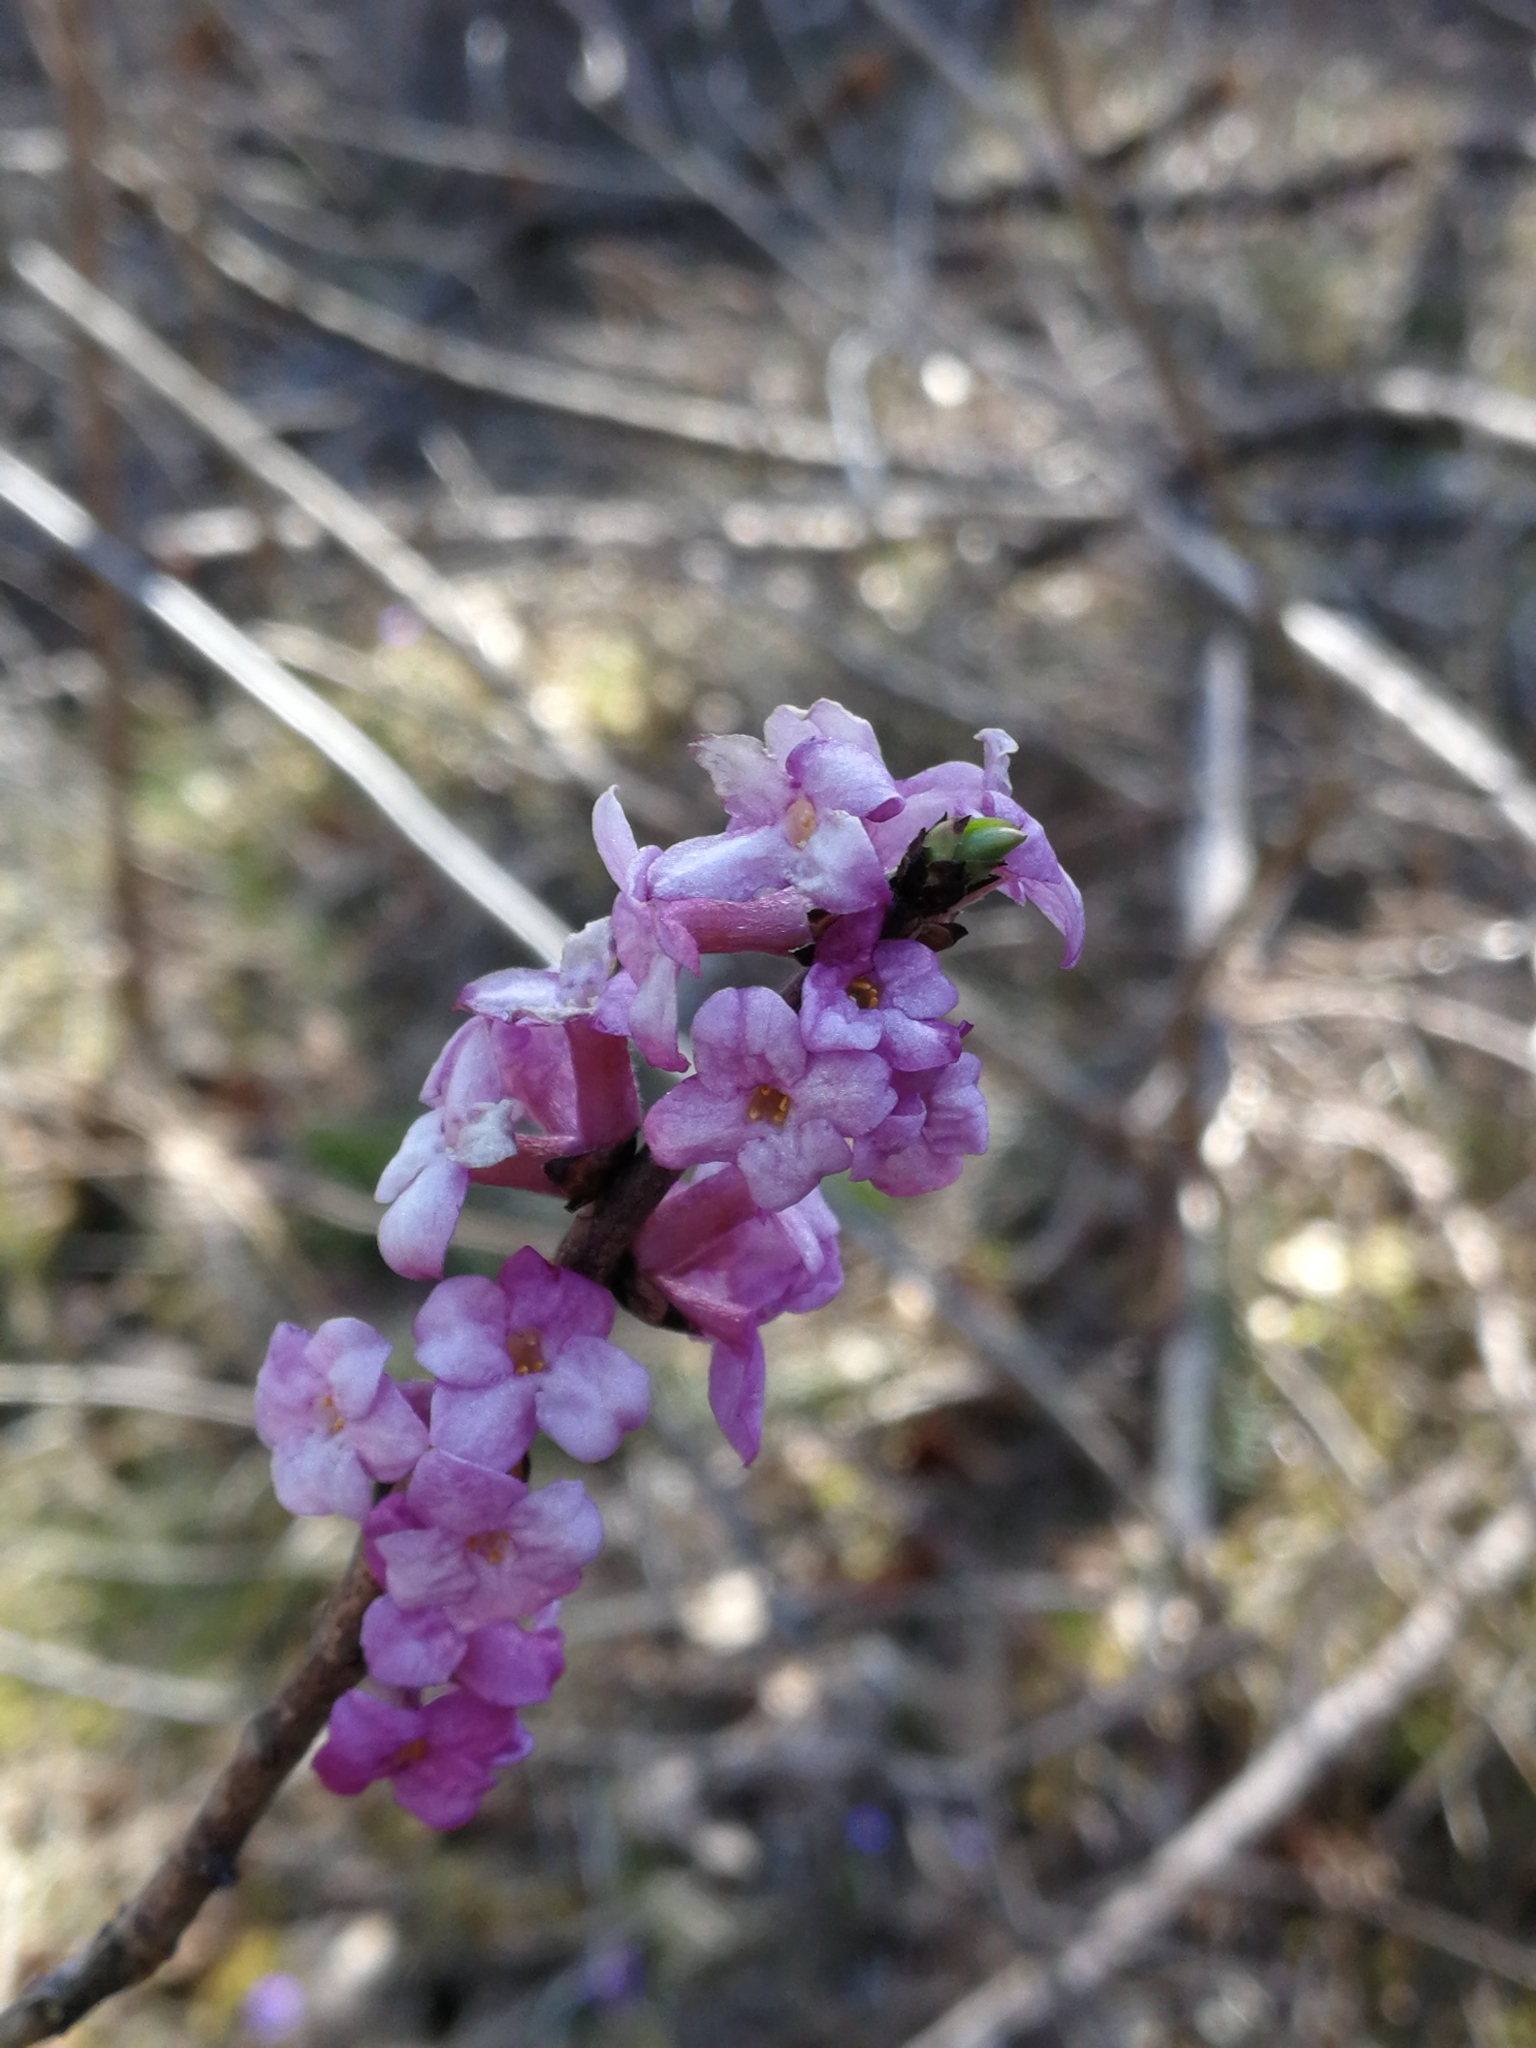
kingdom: Plantae
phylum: Tracheophyta
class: Magnoliopsida
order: Malvales
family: Thymelaeaceae
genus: Daphne
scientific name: Daphne mezereum
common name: Mezereon
